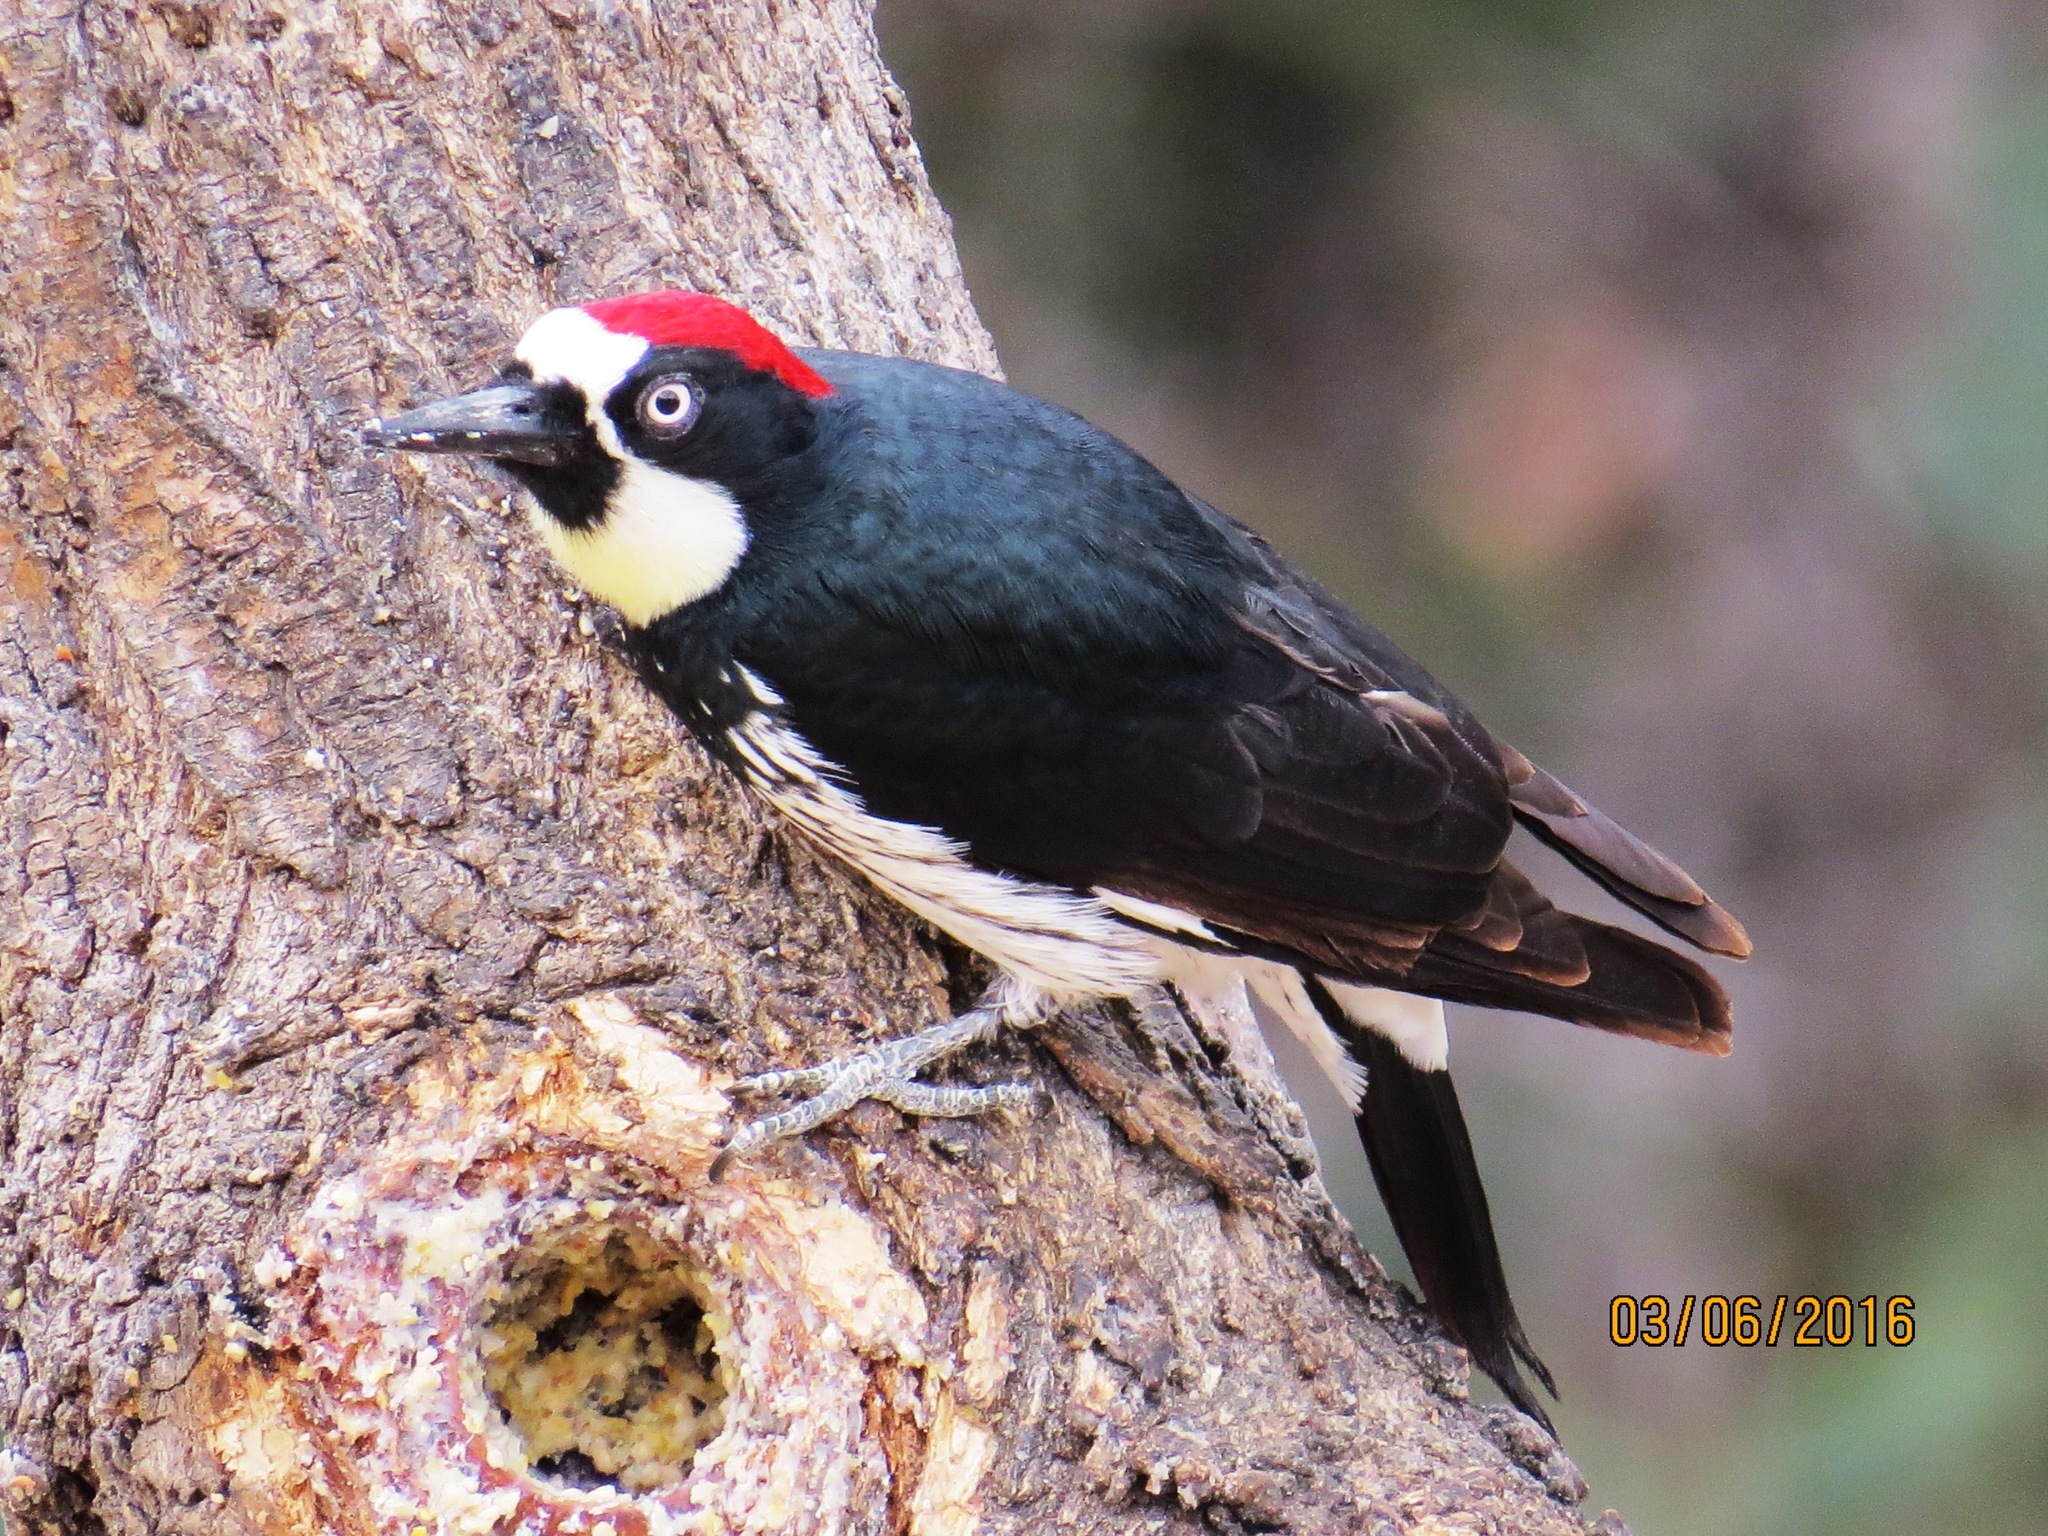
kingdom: Animalia
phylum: Chordata
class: Aves
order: Piciformes
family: Picidae
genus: Melanerpes
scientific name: Melanerpes formicivorus
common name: Acorn woodpecker
